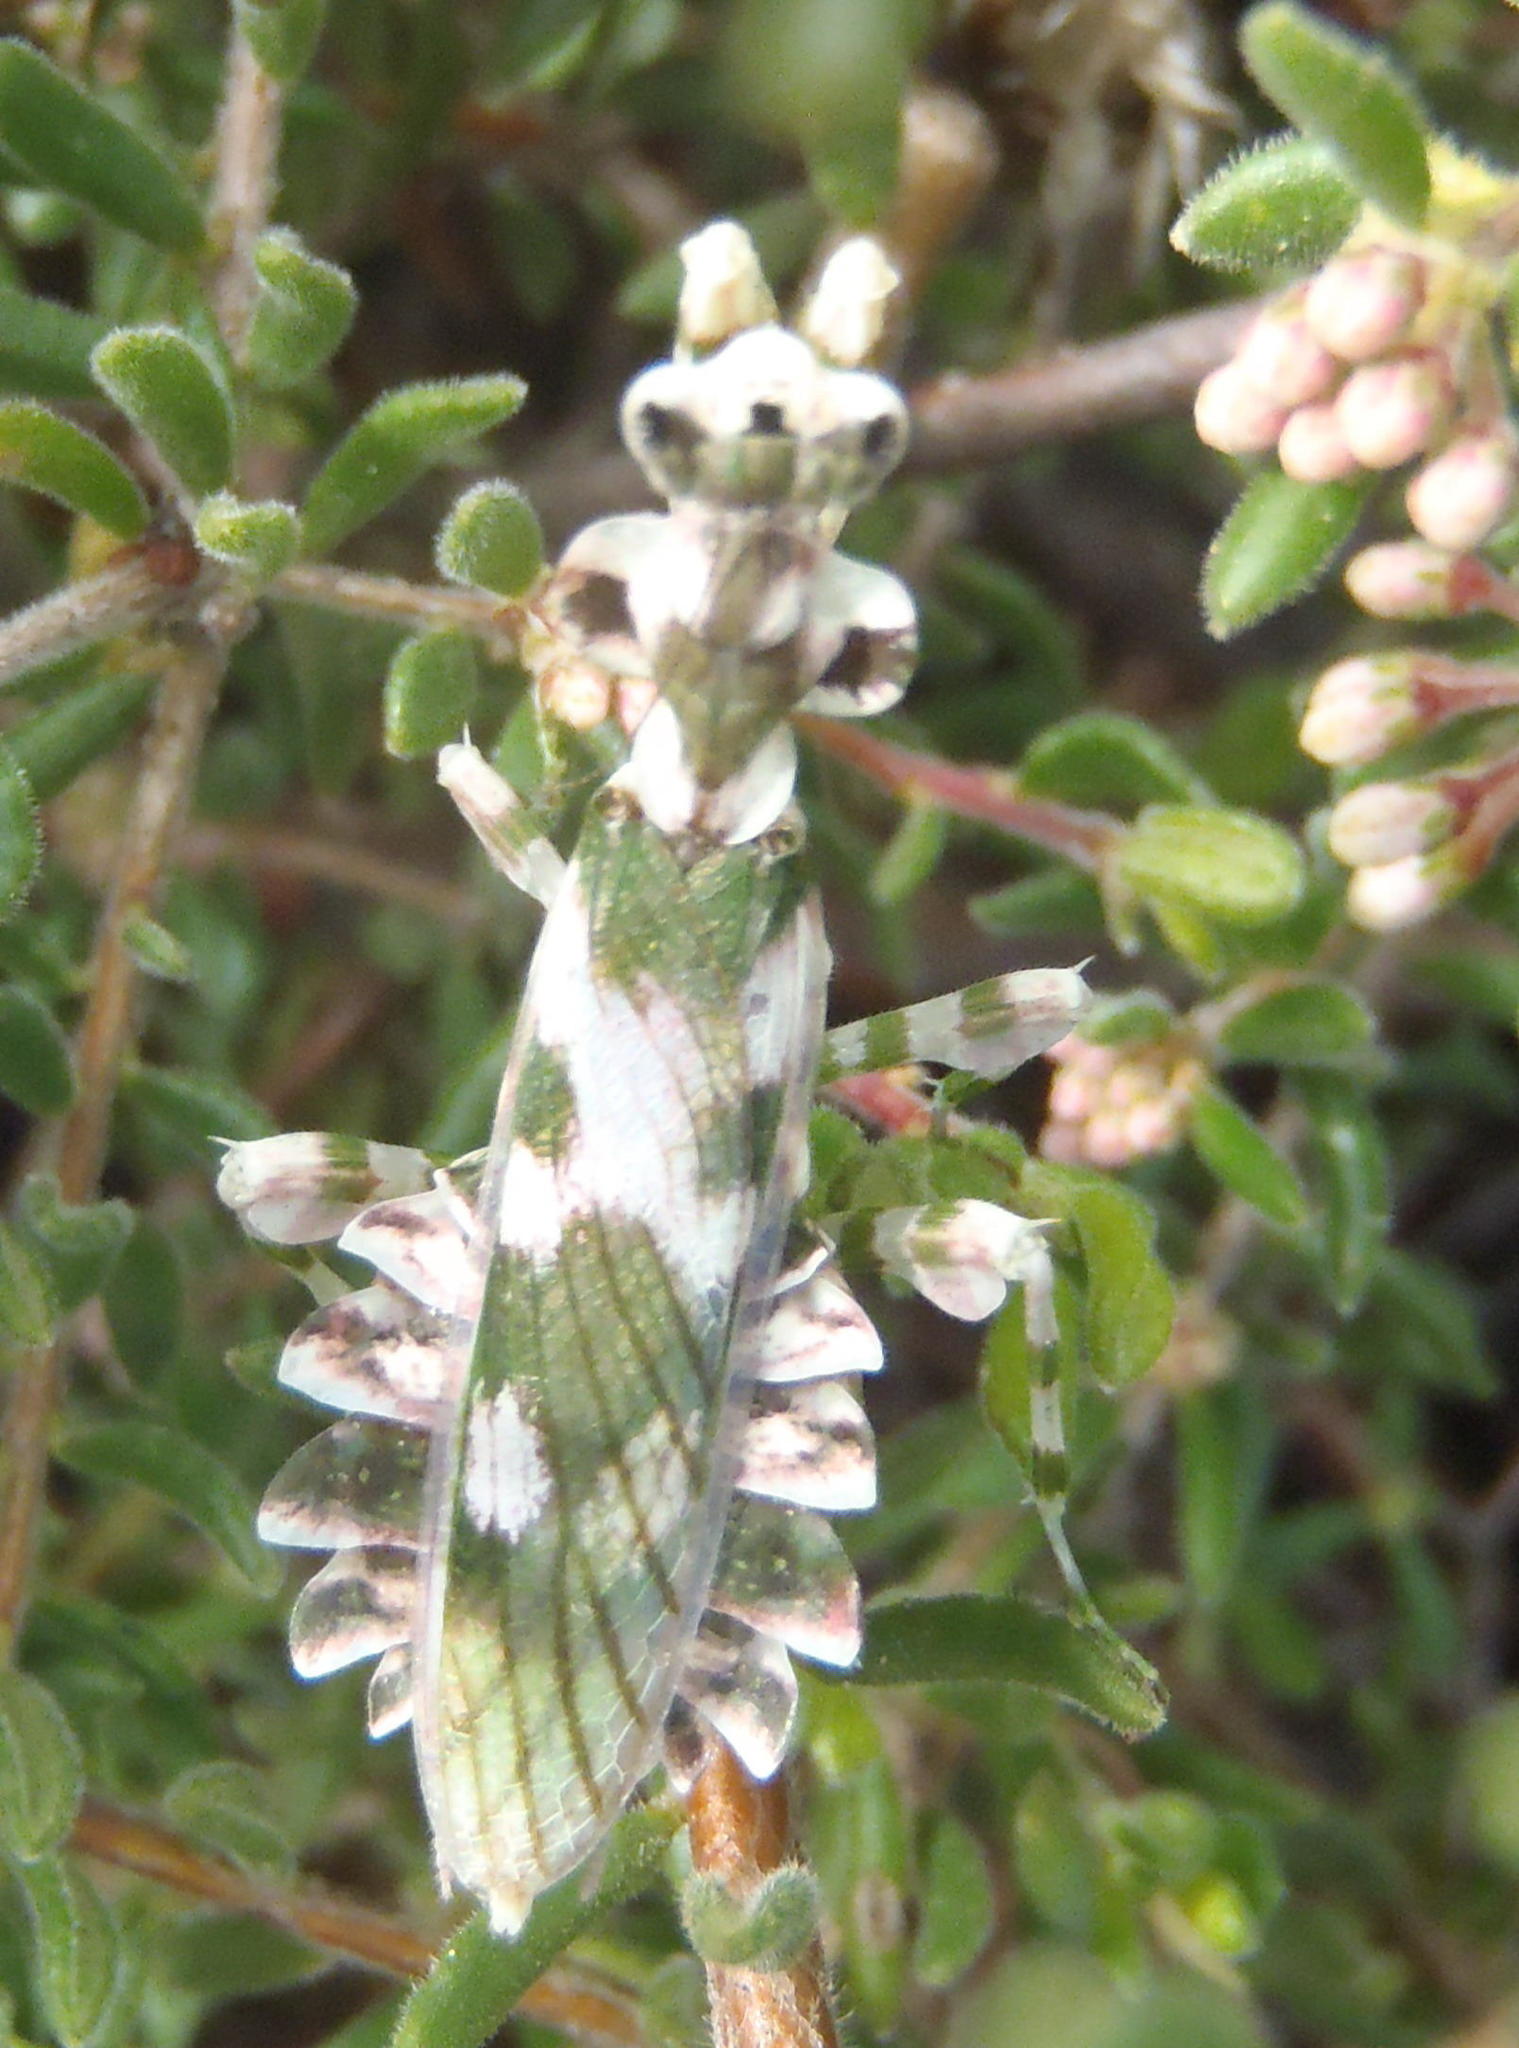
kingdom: Animalia
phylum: Arthropoda
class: Insecta
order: Mantodea
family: Galinthiadidae
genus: Harpagomantis
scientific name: Harpagomantis tricolor
